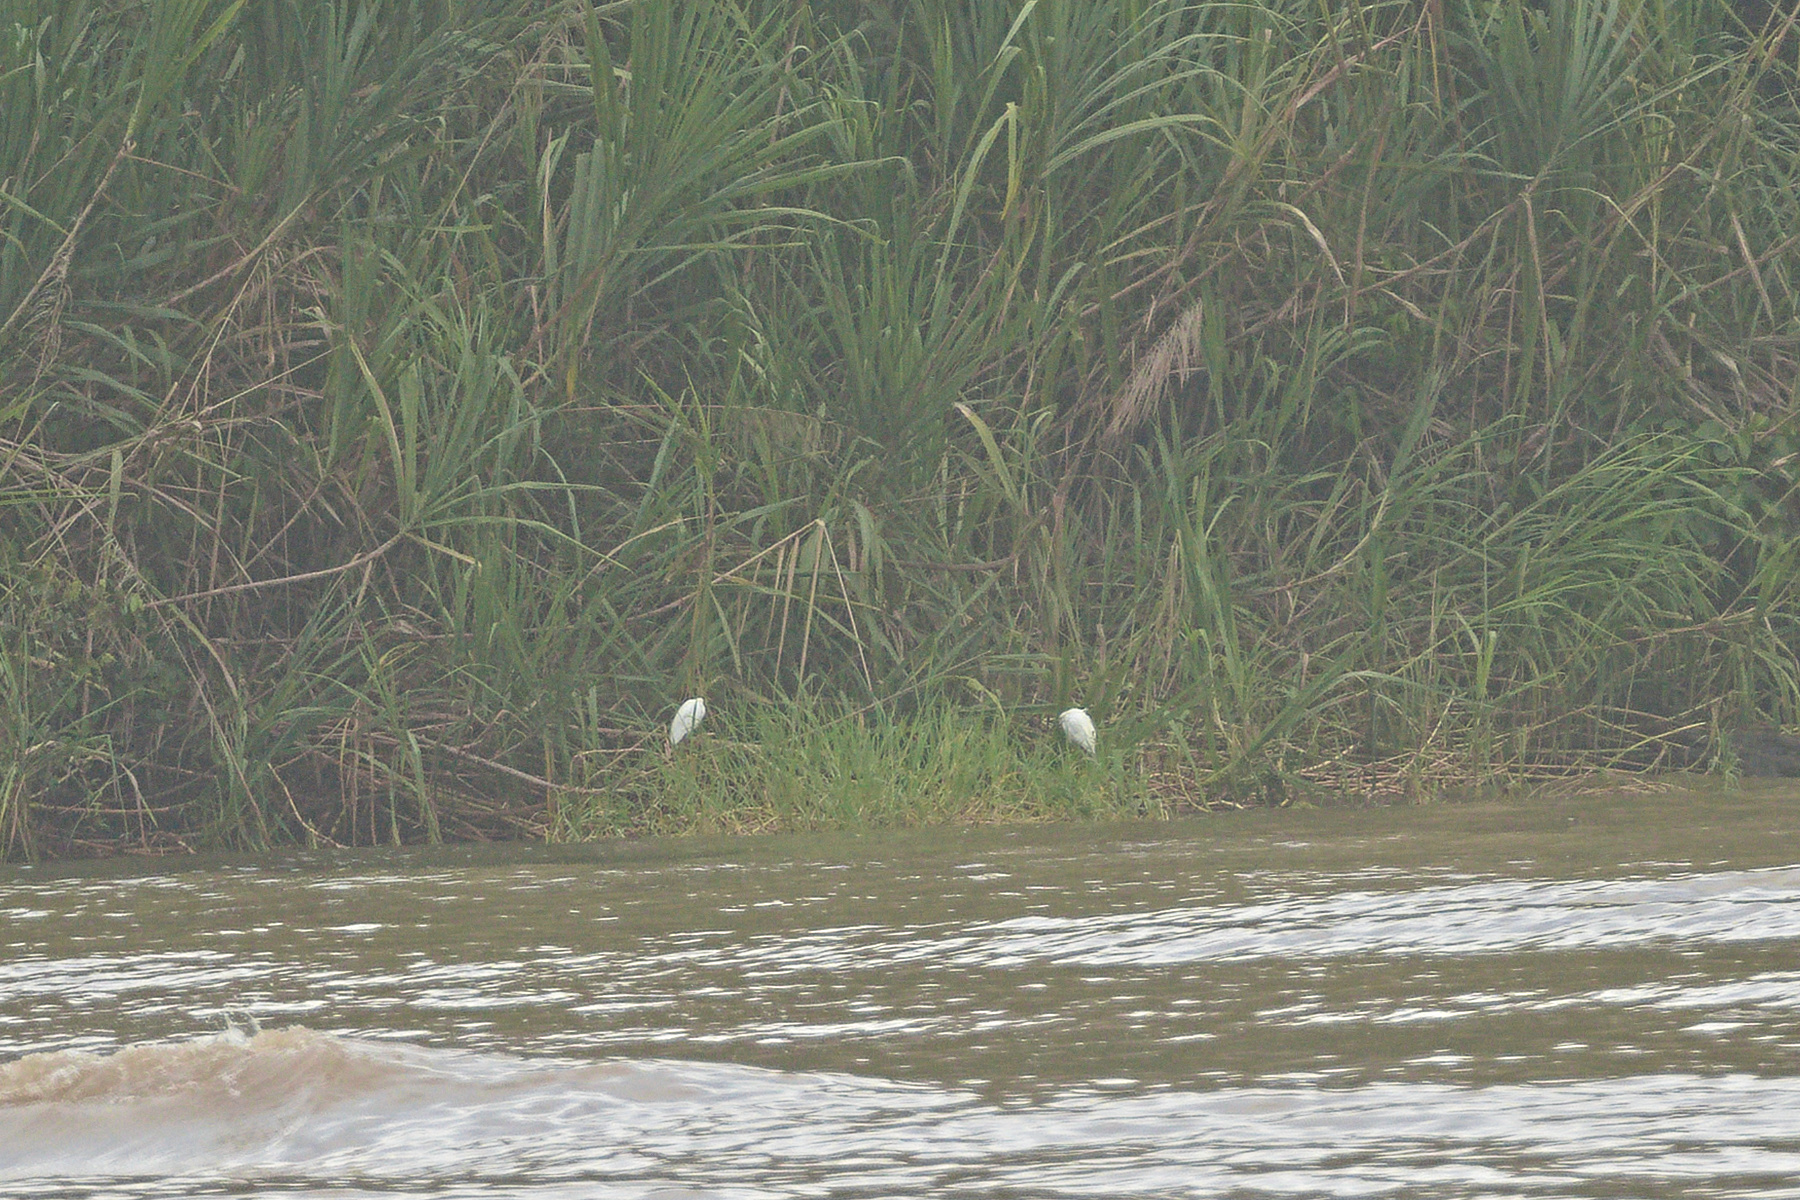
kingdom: Animalia
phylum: Chordata
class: Aves
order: Pelecaniformes
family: Ardeidae
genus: Egretta
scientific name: Egretta thula
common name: Snowy egret
